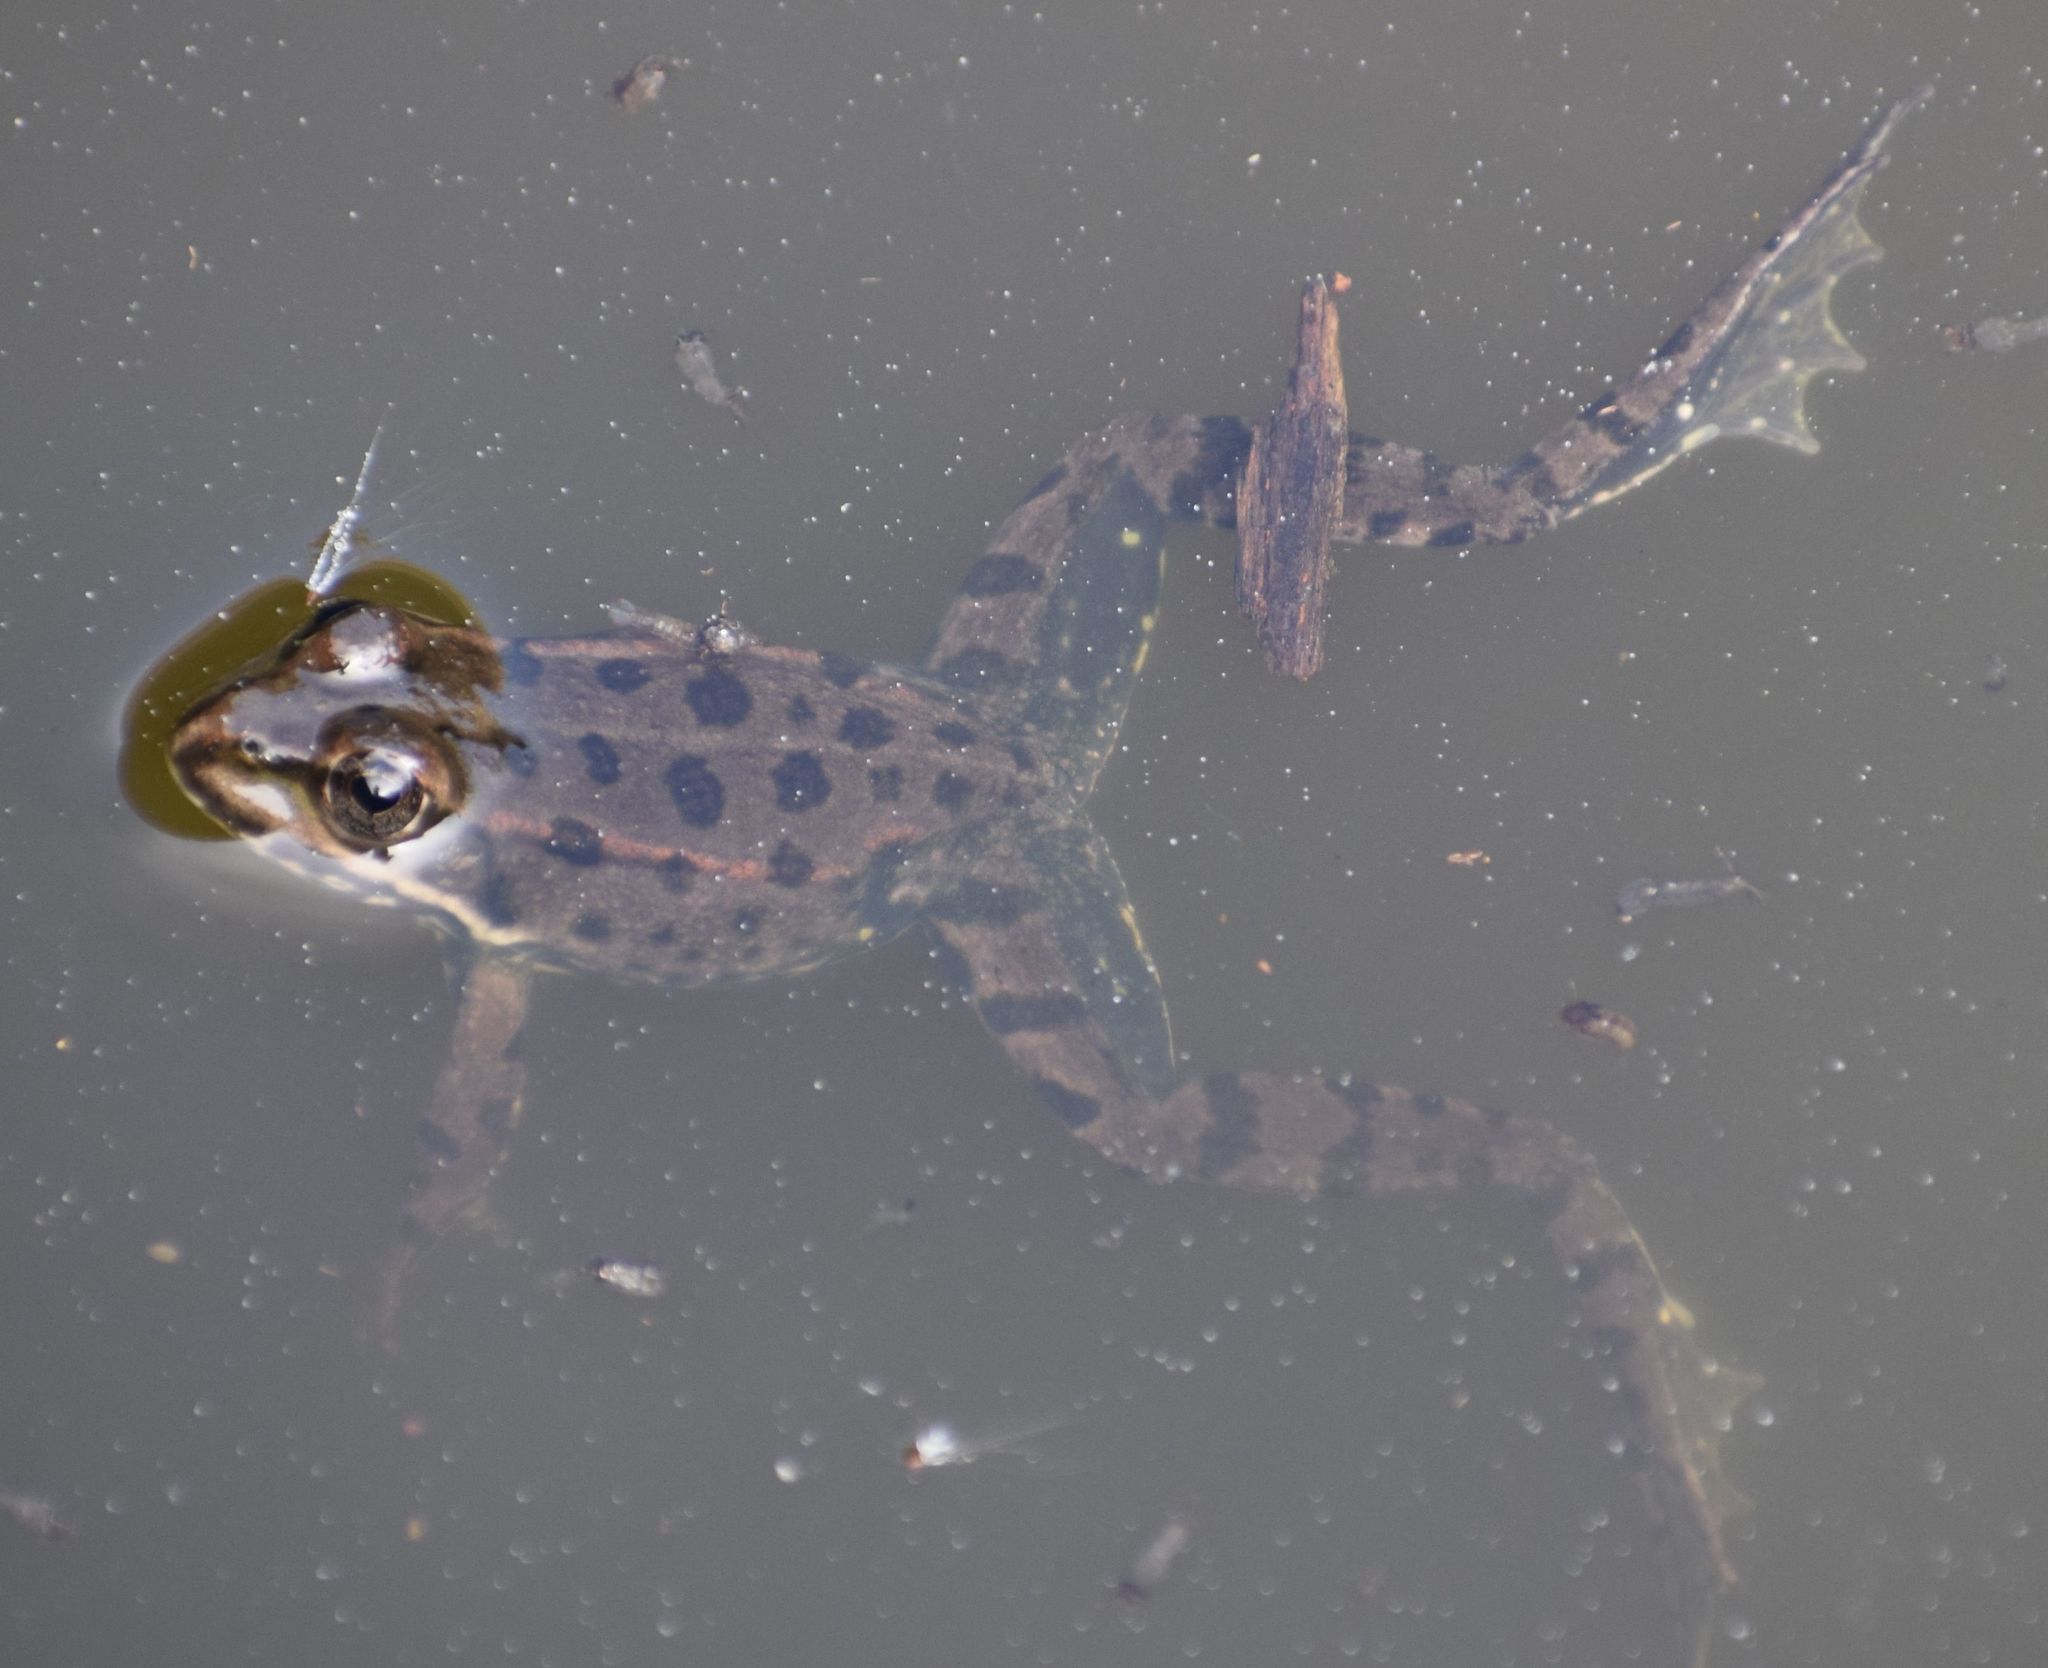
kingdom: Animalia
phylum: Chordata
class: Amphibia
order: Anura
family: Ranidae
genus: Pelophylax
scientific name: Pelophylax
